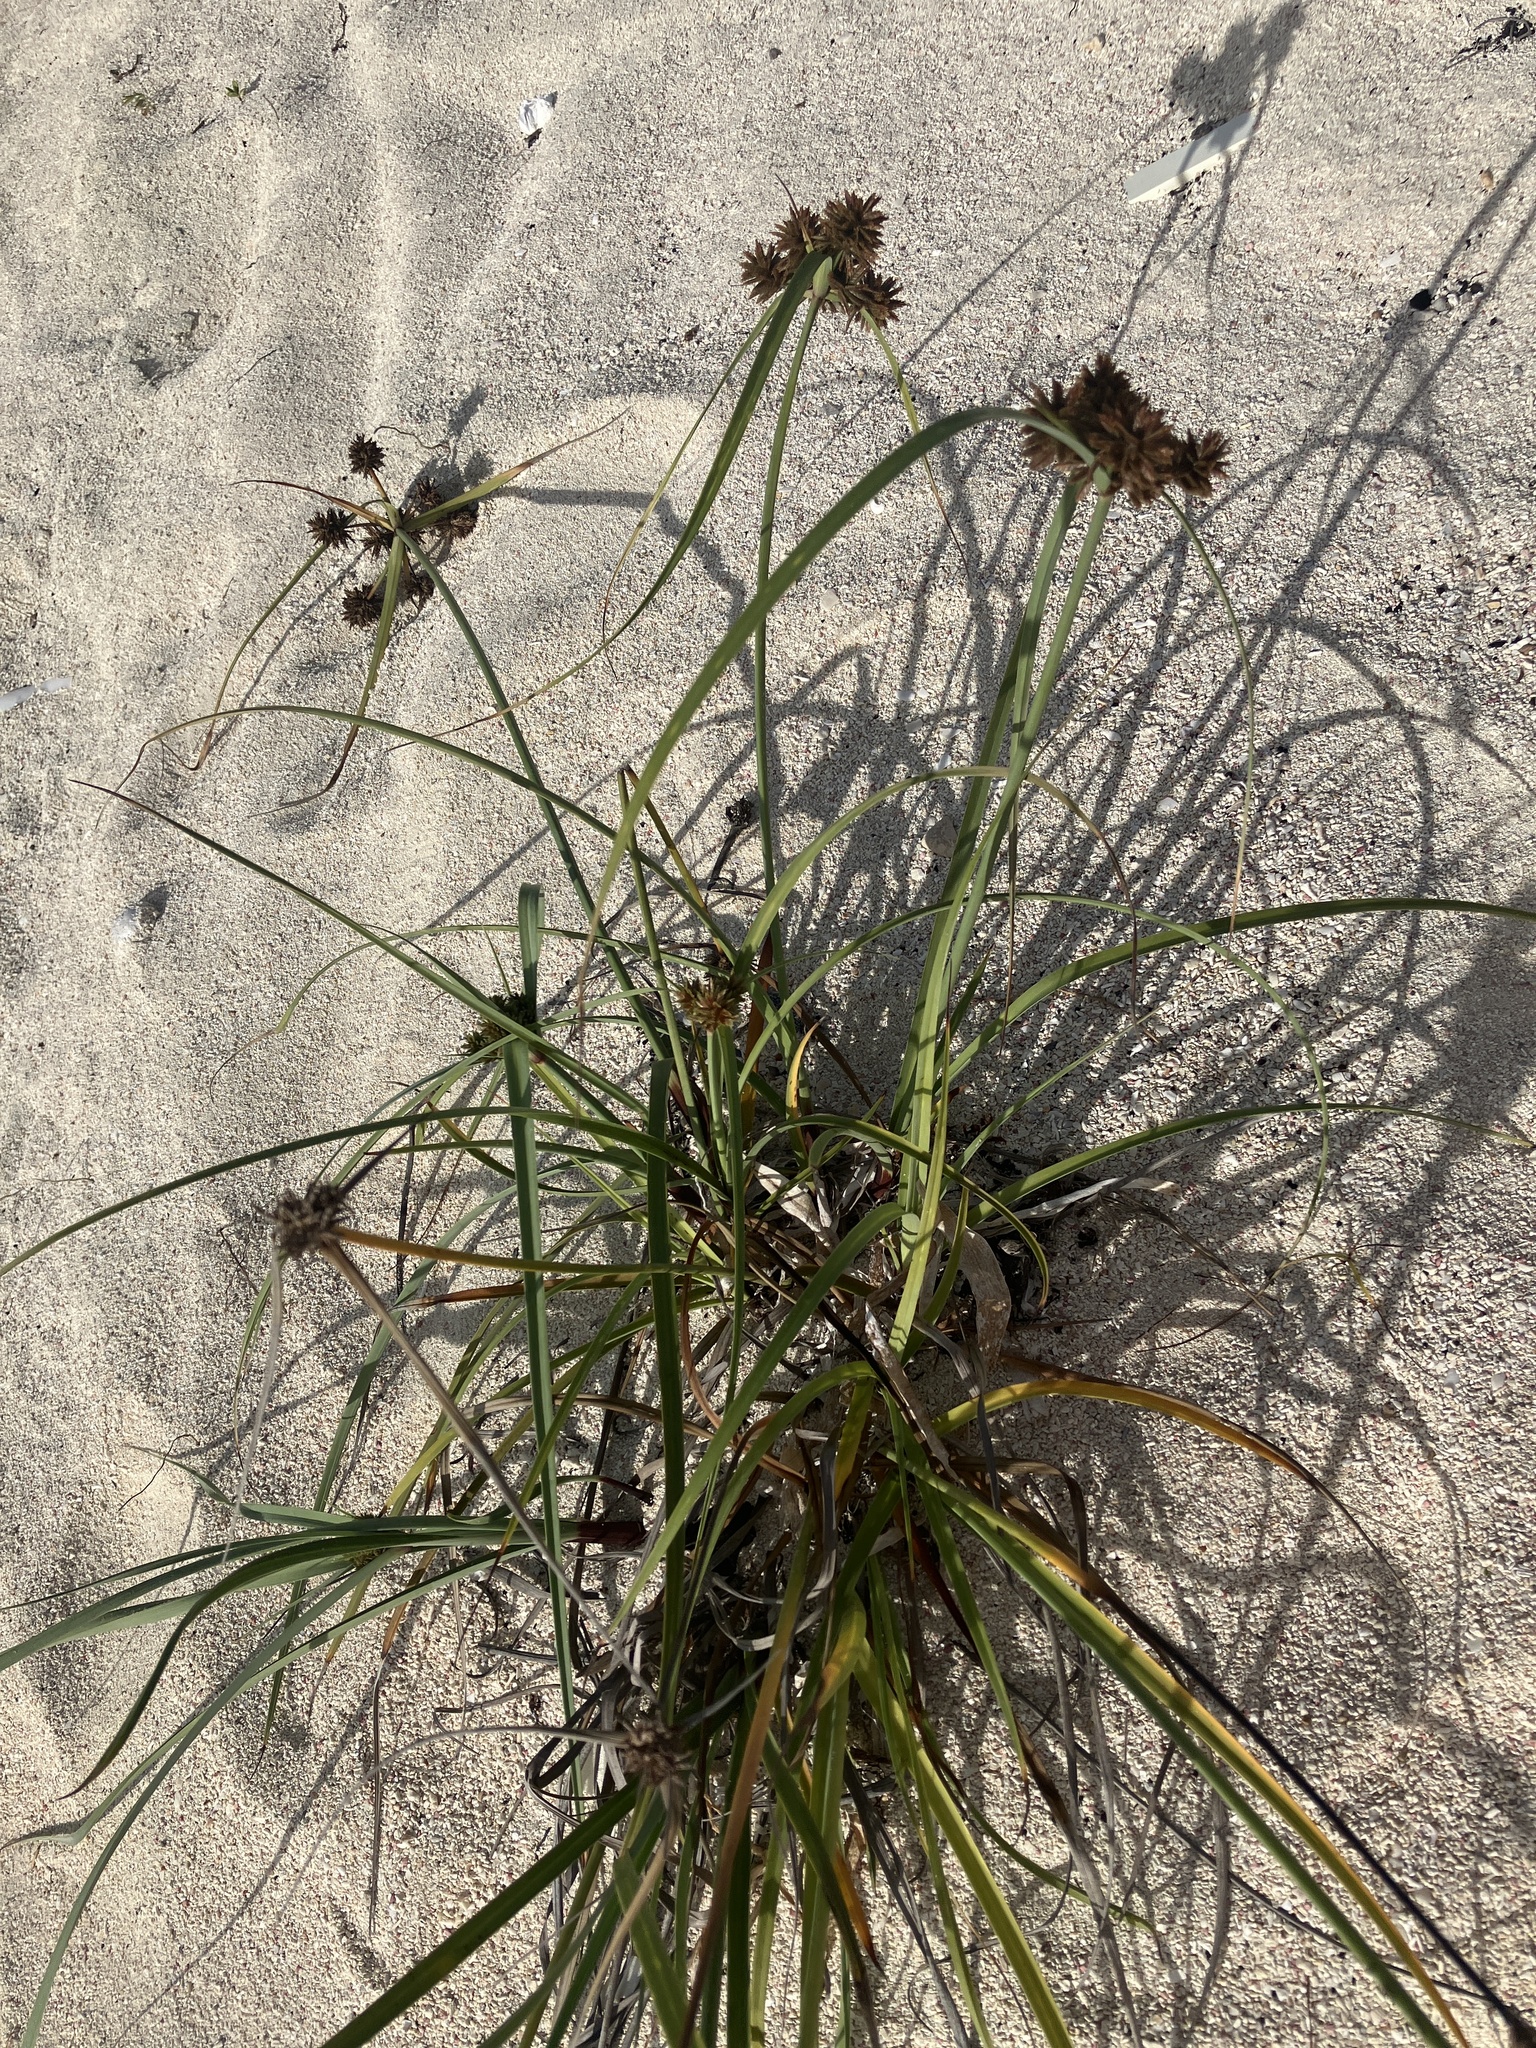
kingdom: Plantae
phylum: Tracheophyta
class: Liliopsida
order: Poales
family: Cyperaceae
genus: Cyperus
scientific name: Cyperus planifolius
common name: Bullgrass
